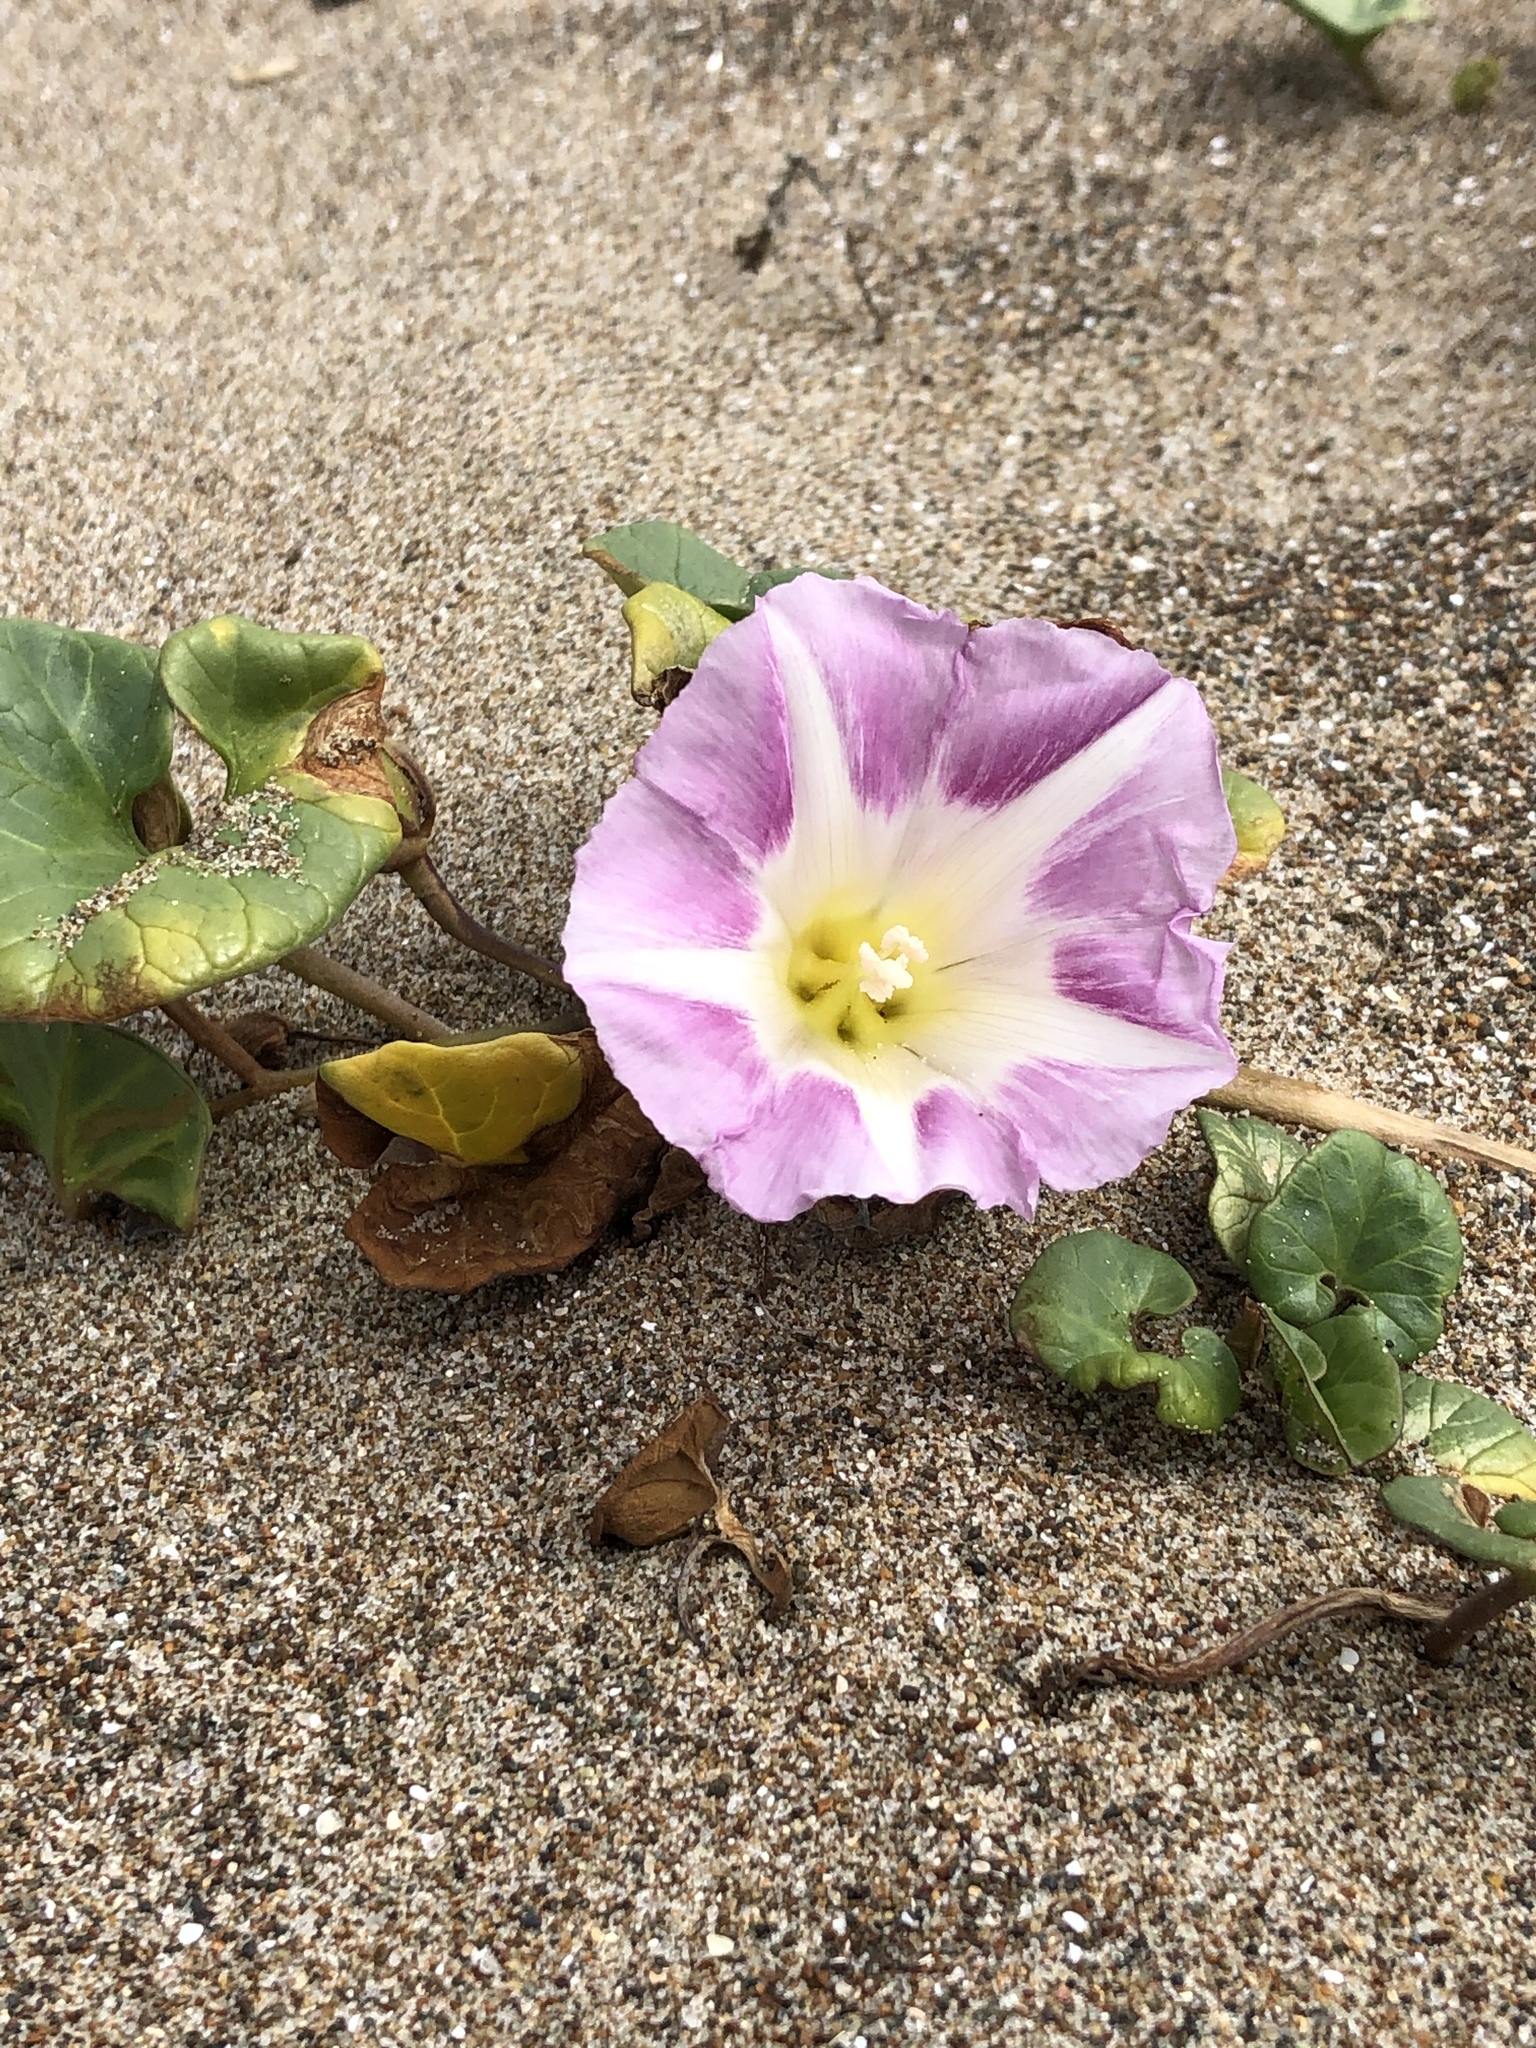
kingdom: Plantae
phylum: Tracheophyta
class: Magnoliopsida
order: Solanales
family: Convolvulaceae
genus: Calystegia
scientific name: Calystegia soldanella
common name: Sea bindweed
